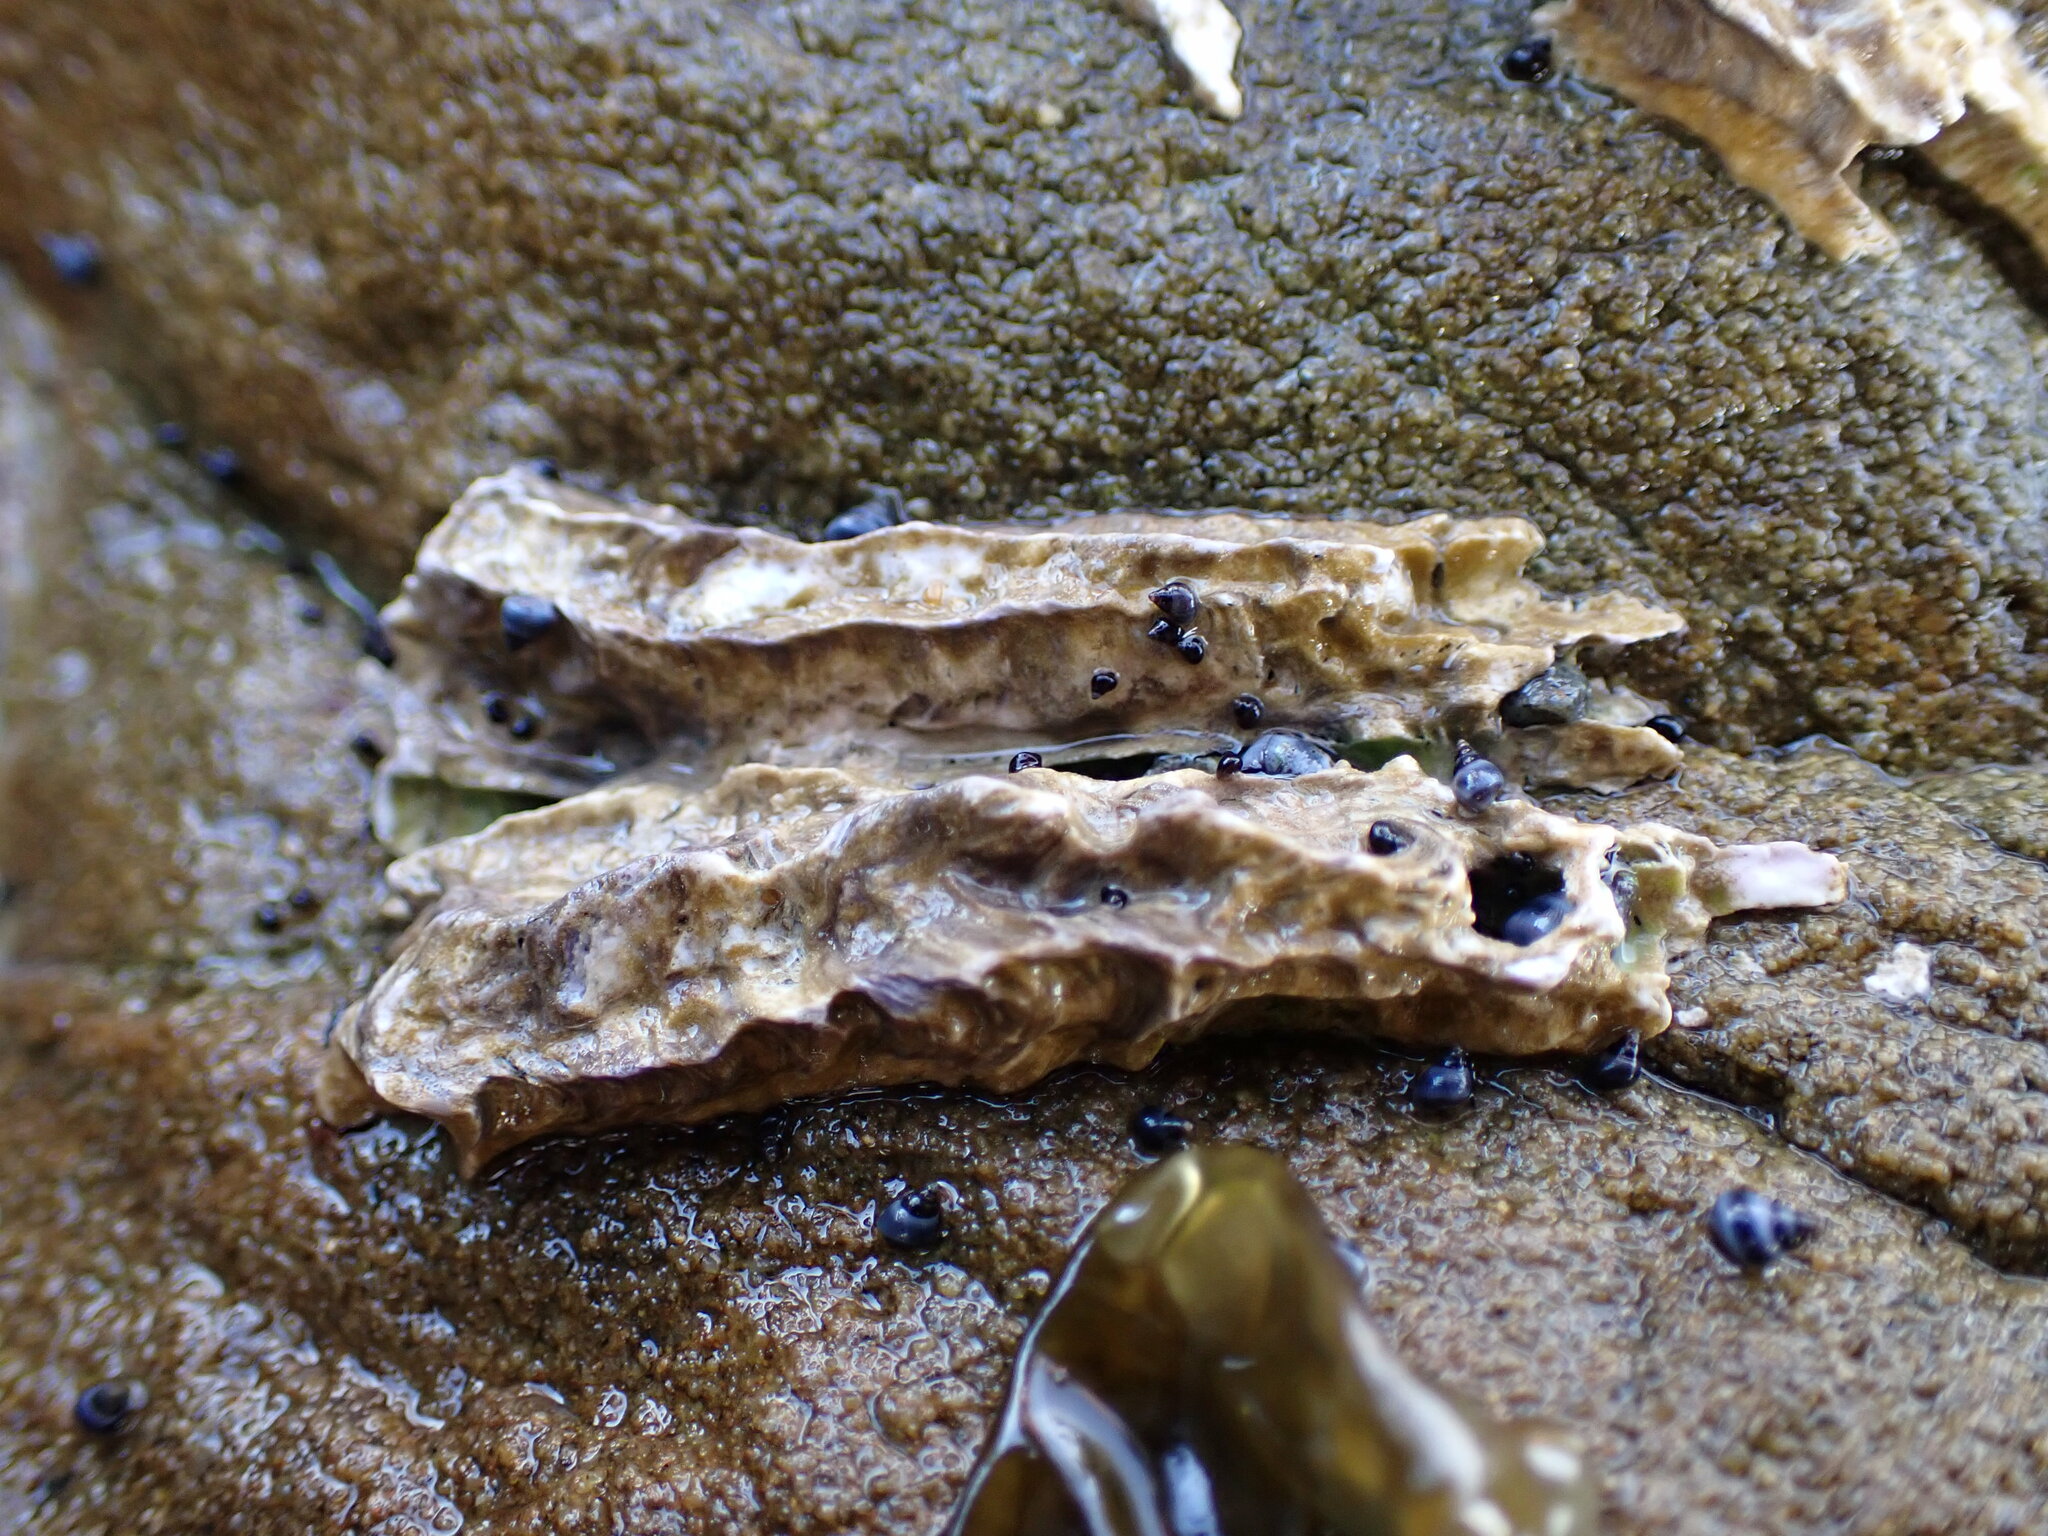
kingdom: Animalia
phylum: Annelida
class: Polychaeta
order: Sabellida
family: Serpulidae
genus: Spirobranchus
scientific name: Spirobranchus cariniferus
